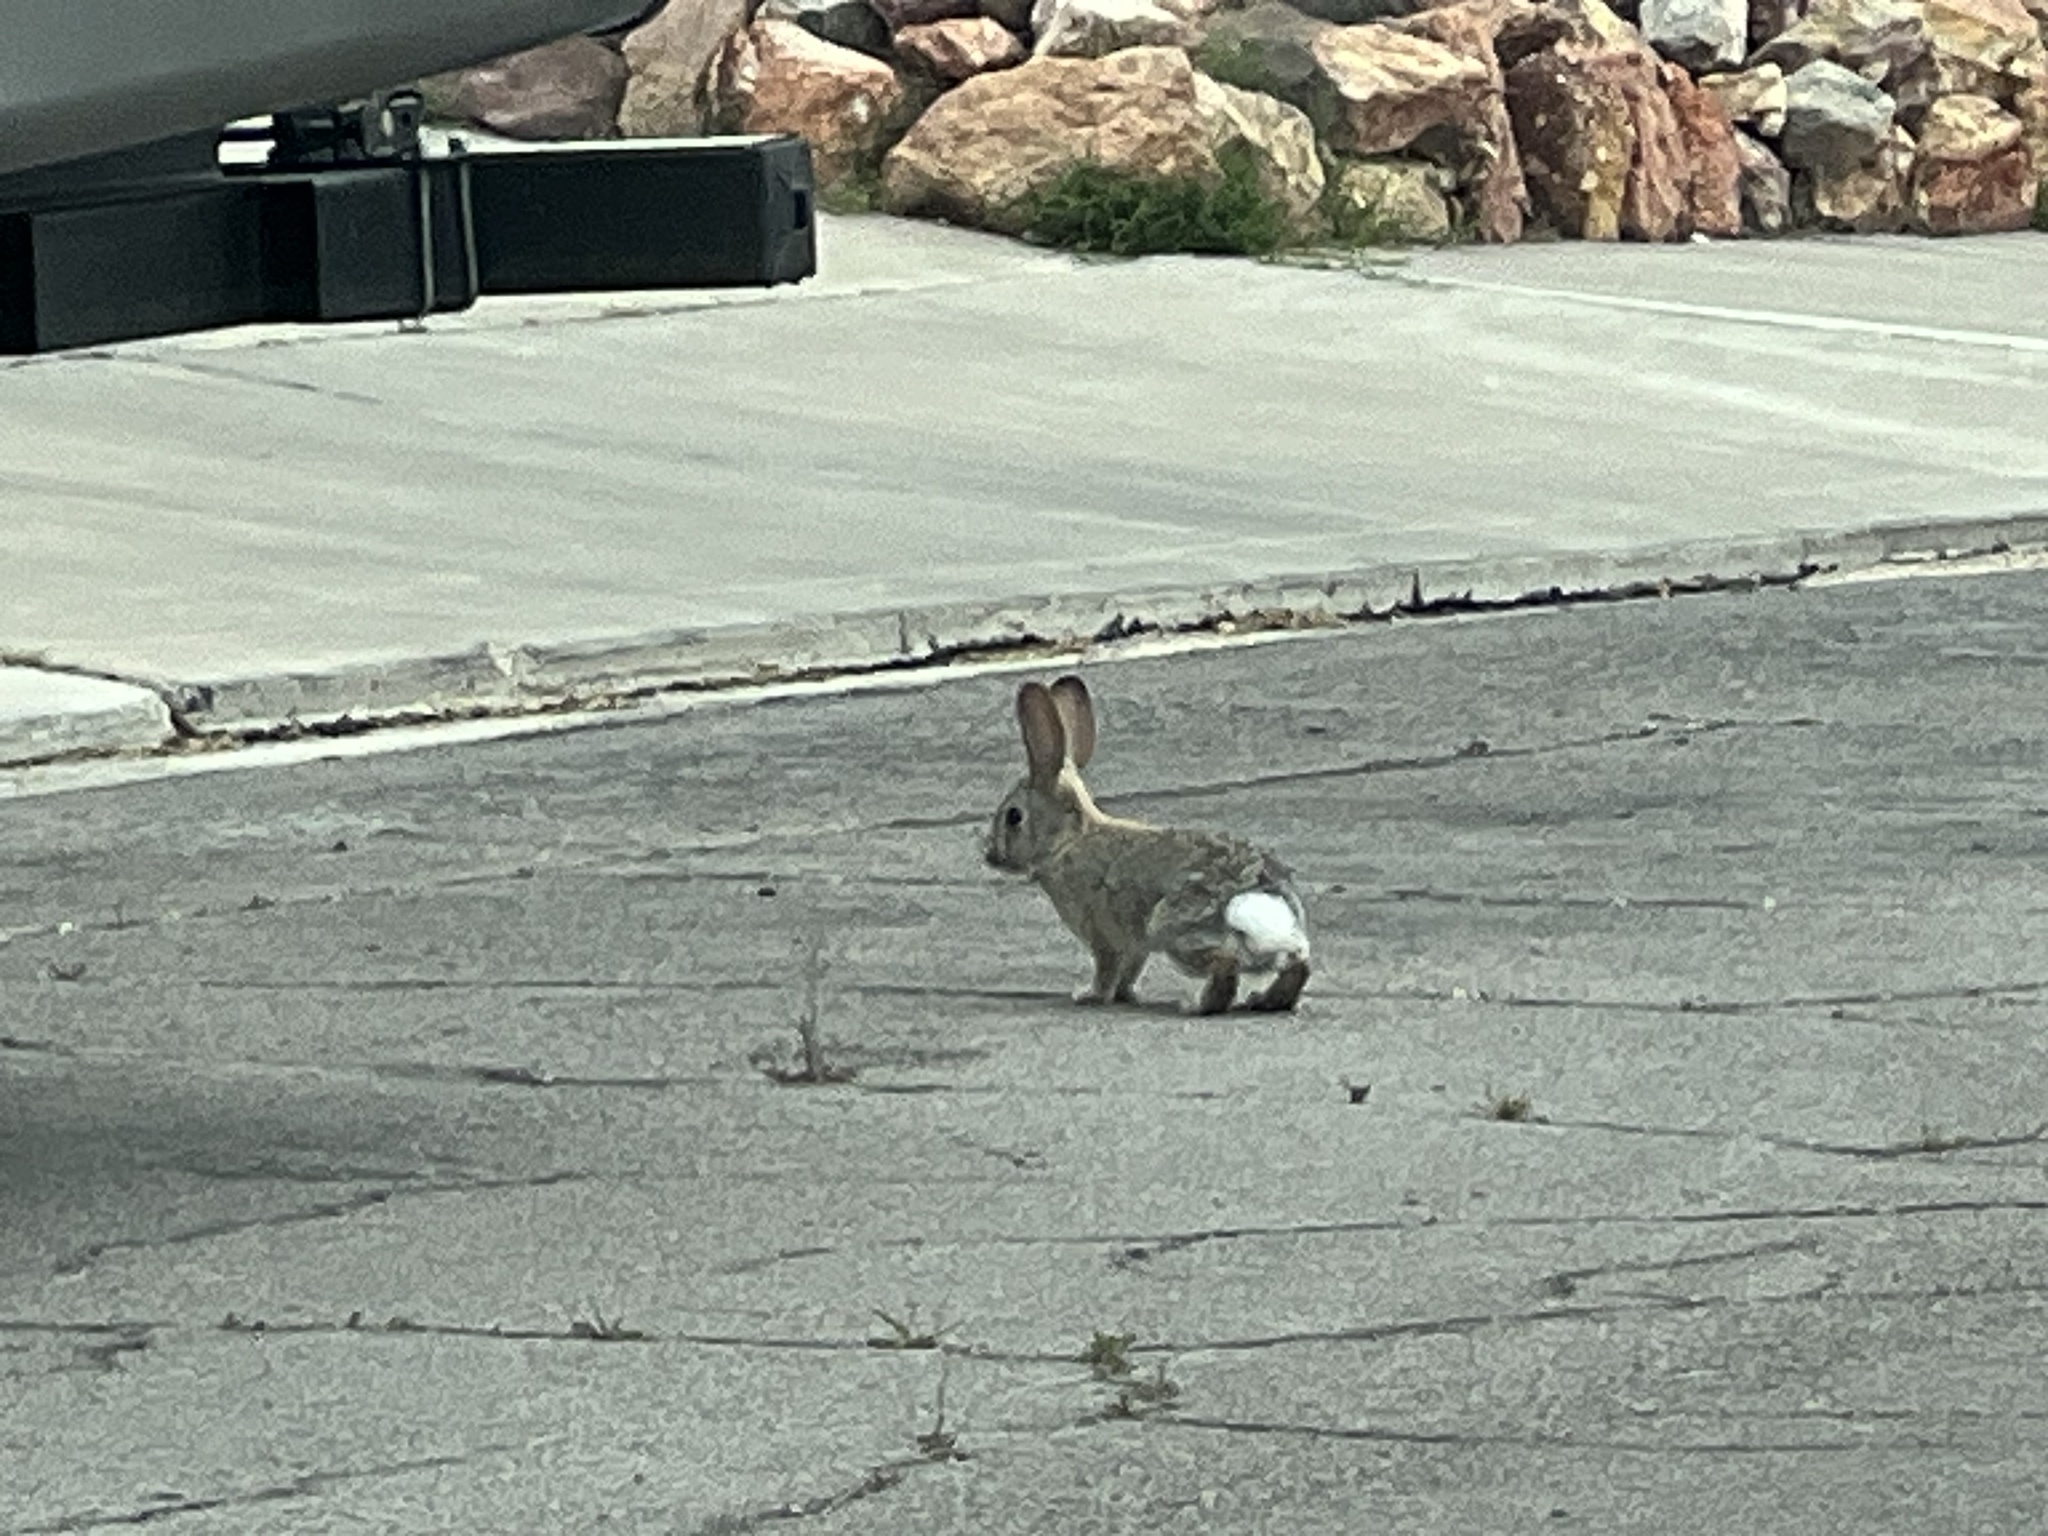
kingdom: Animalia
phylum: Chordata
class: Mammalia
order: Lagomorpha
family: Leporidae
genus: Sylvilagus
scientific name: Sylvilagus audubonii
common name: Desert cottontail
